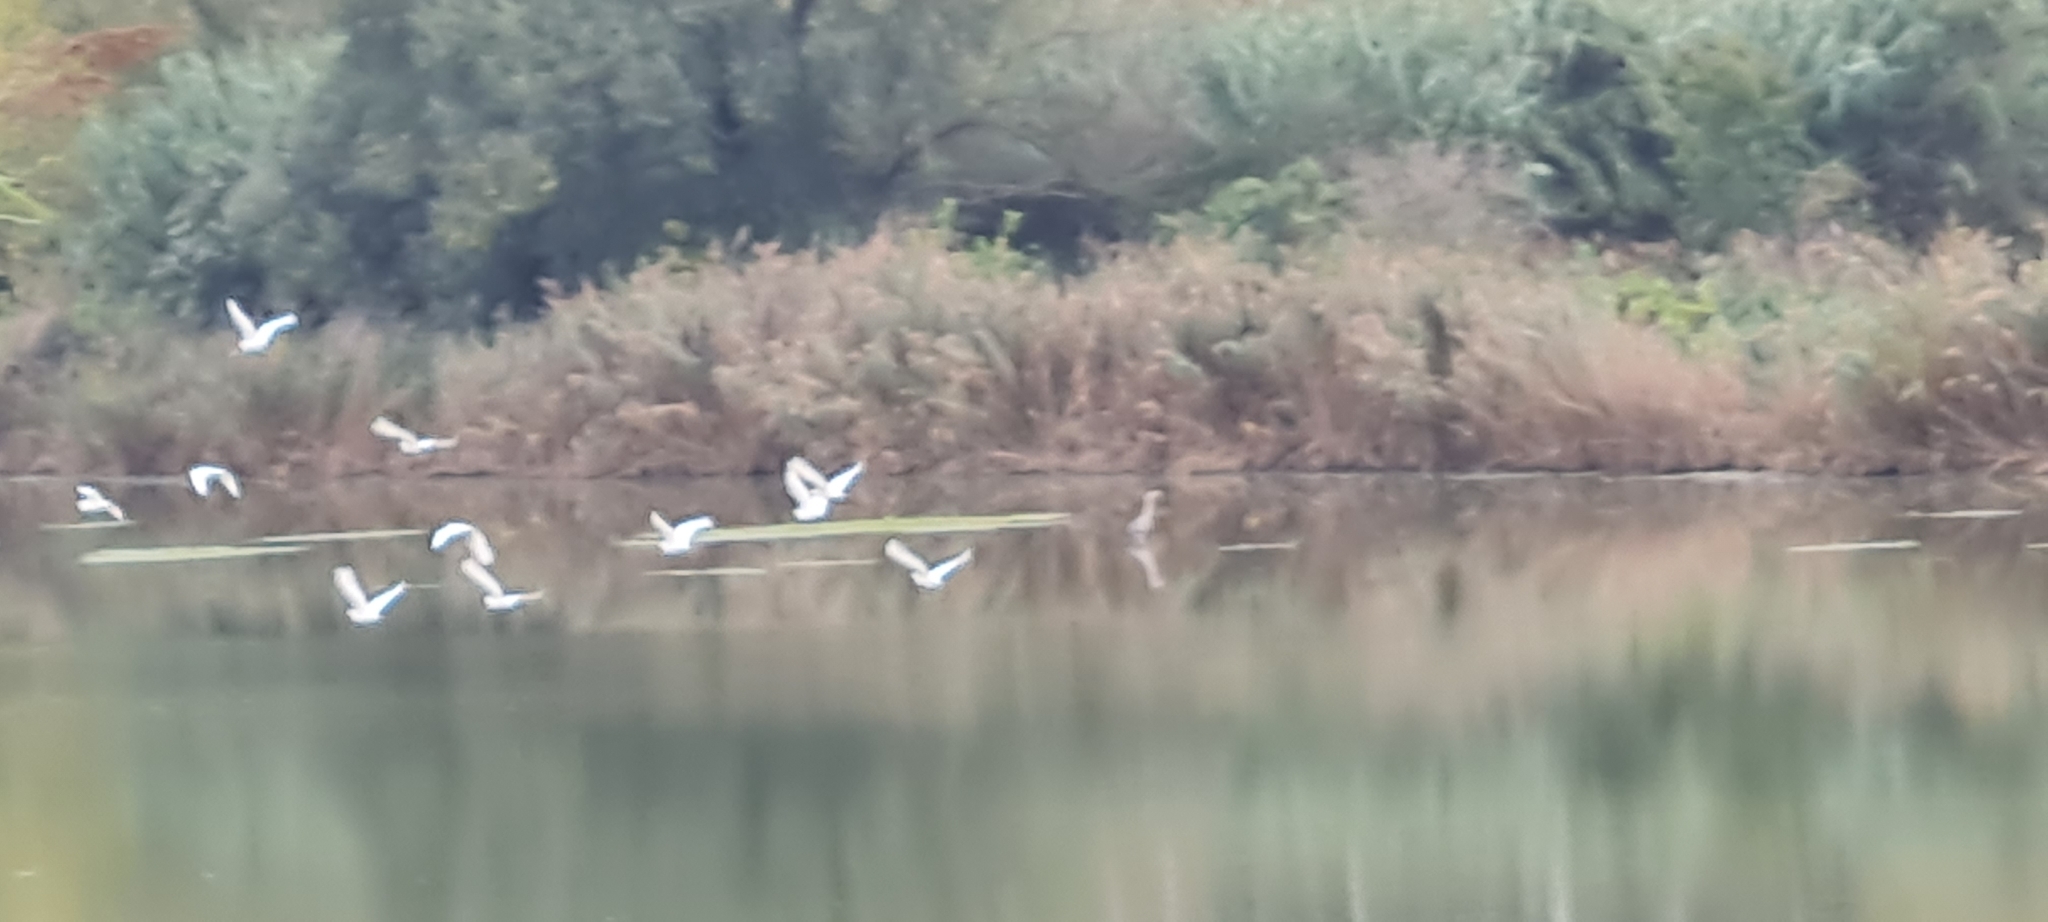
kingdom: Animalia
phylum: Chordata
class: Aves
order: Pelecaniformes
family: Ardeidae
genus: Egretta
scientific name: Egretta garzetta
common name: Little egret
